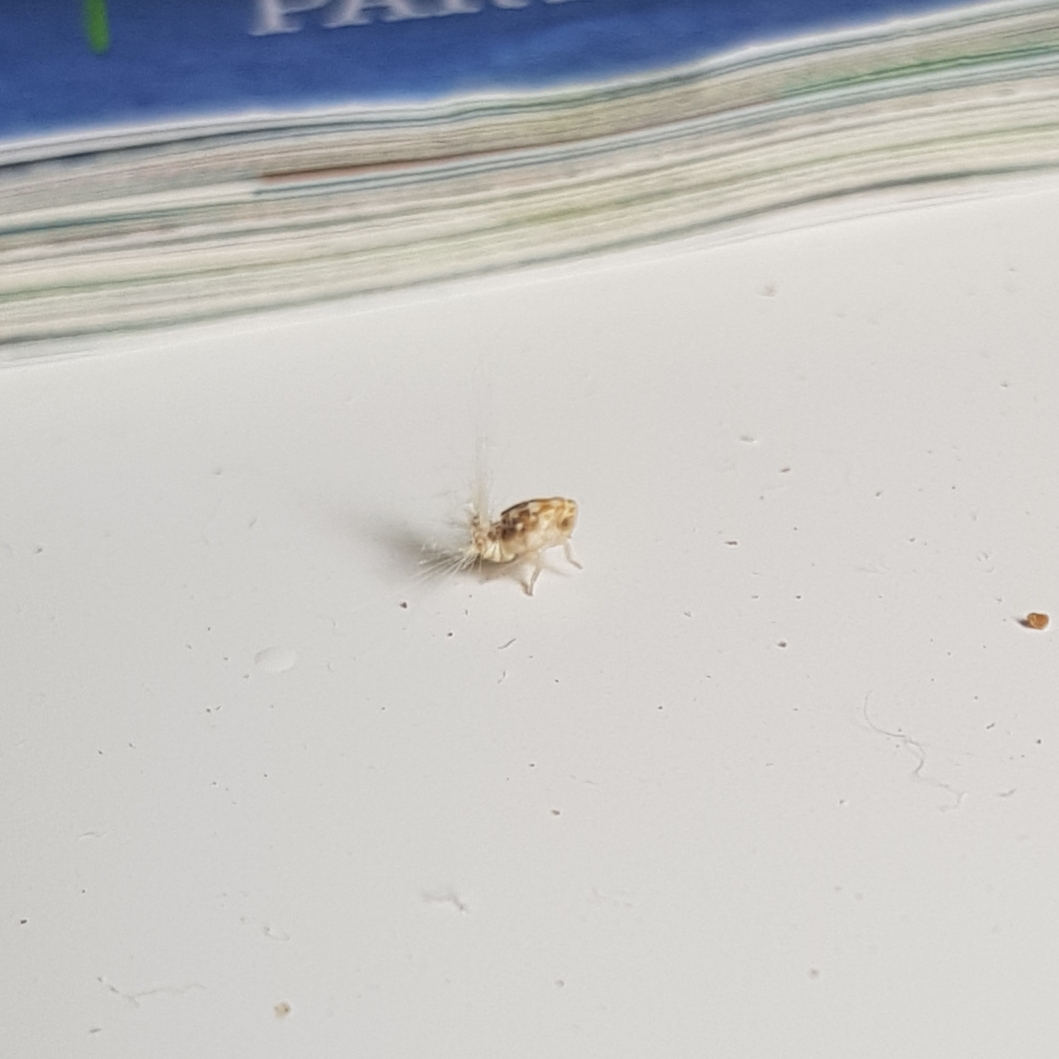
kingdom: Animalia
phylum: Arthropoda
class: Insecta
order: Hemiptera
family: Ricaniidae
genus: Scolypopa
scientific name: Scolypopa australis
